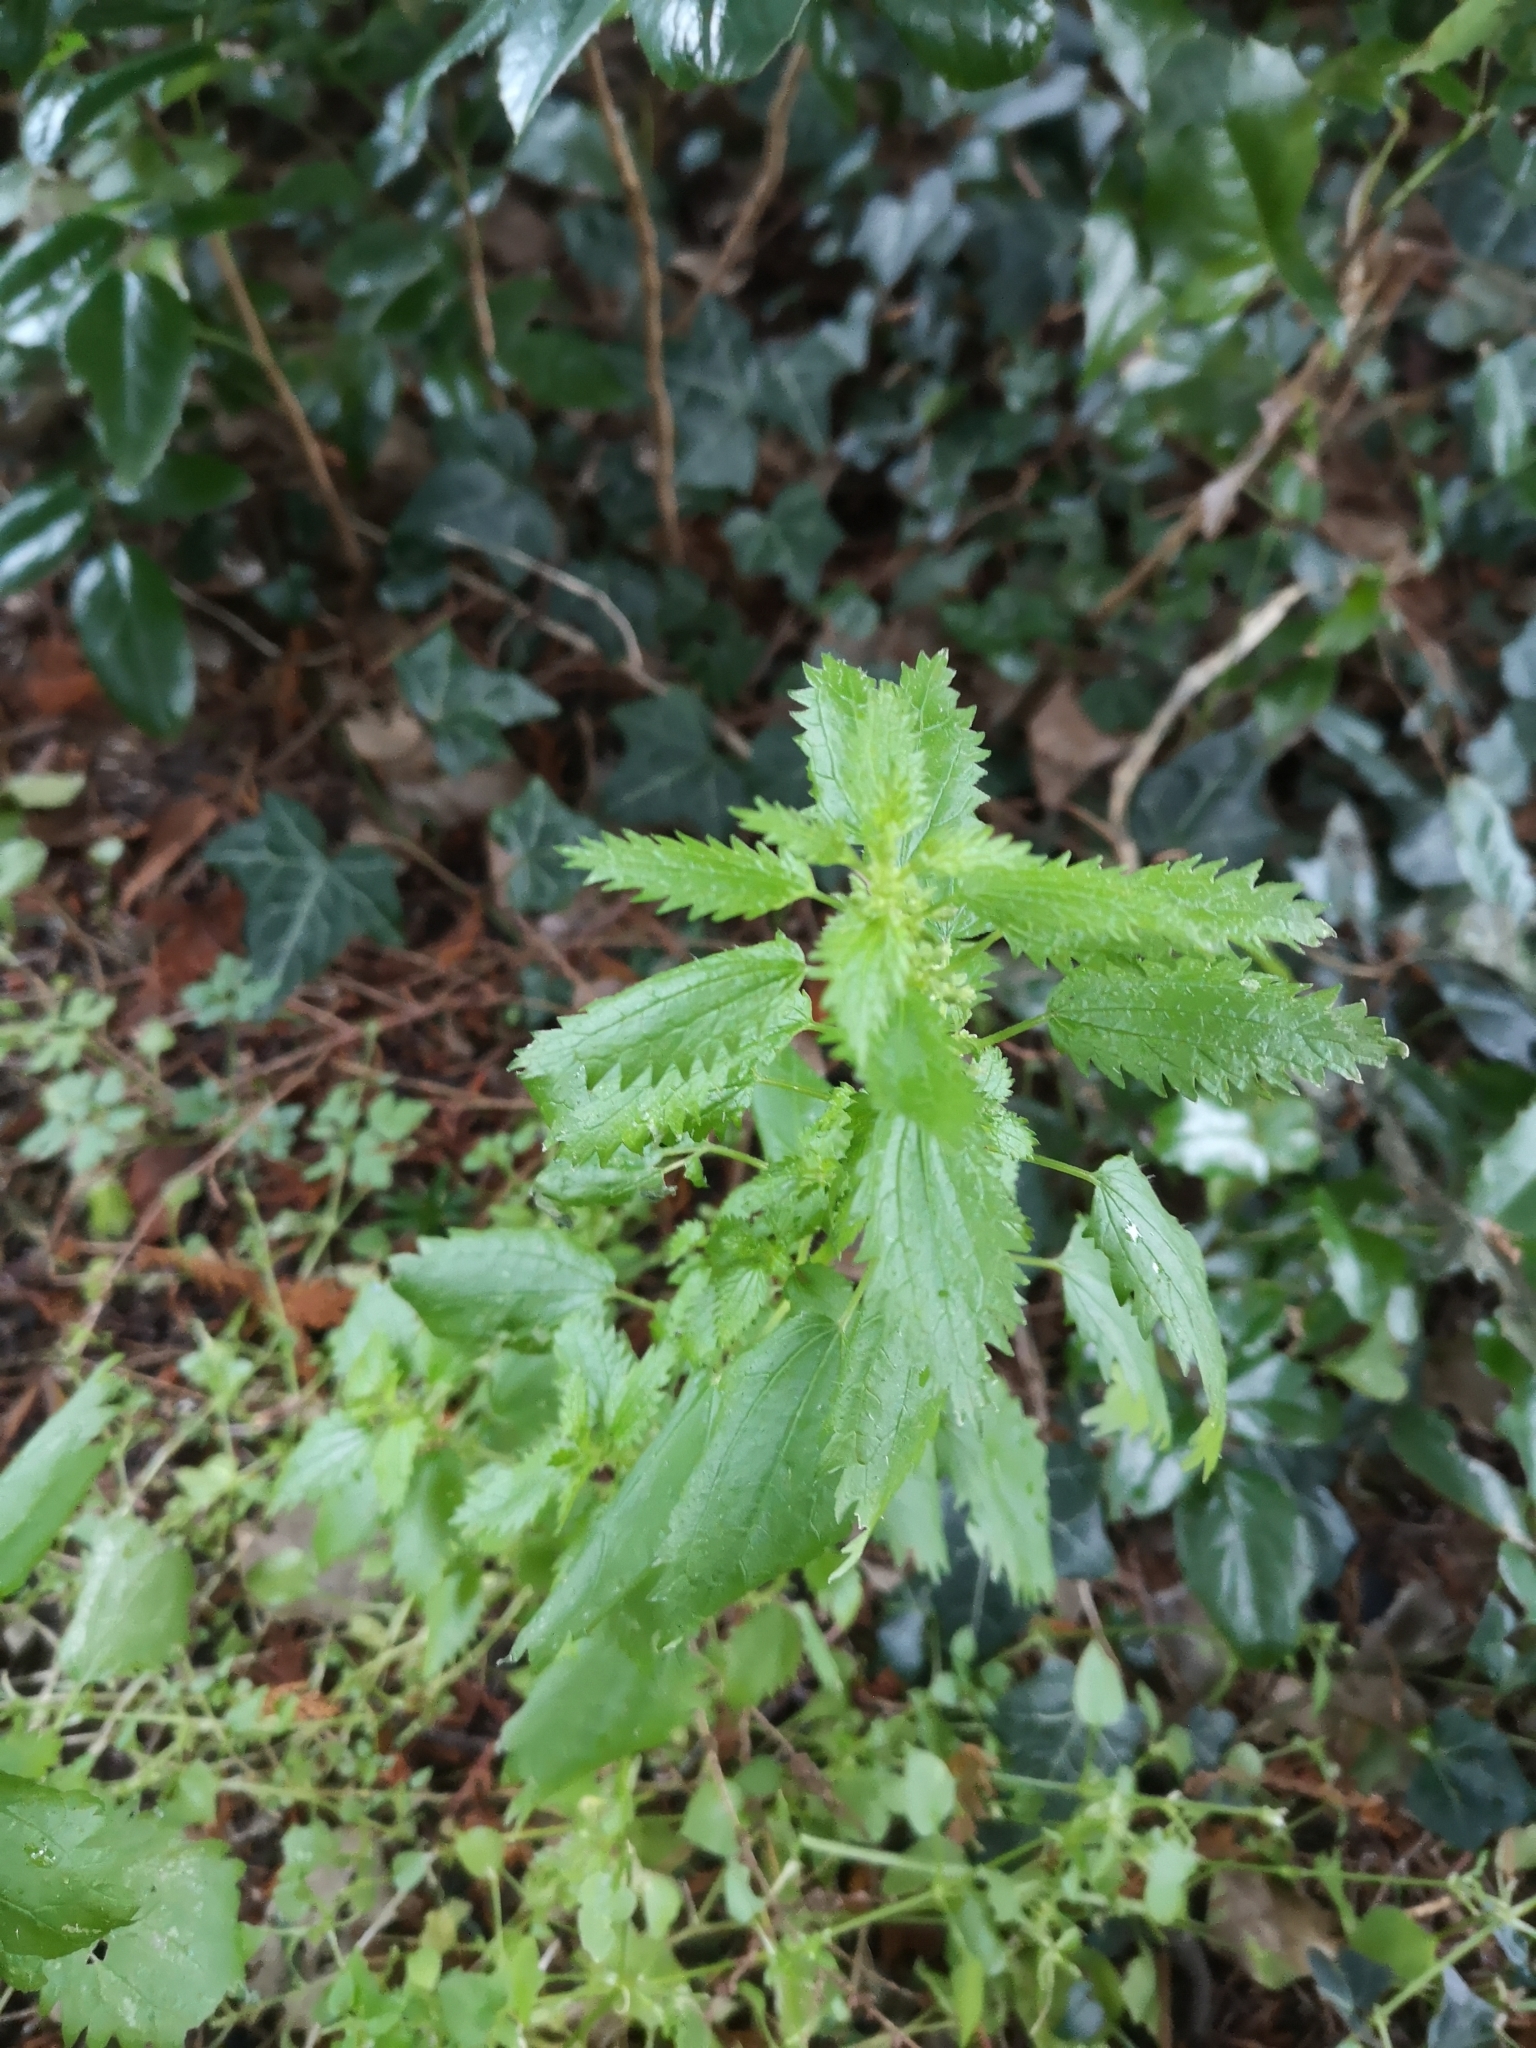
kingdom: Plantae
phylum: Tracheophyta
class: Magnoliopsida
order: Rosales
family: Urticaceae
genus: Urtica
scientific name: Urtica urens
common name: Dwarf nettle
